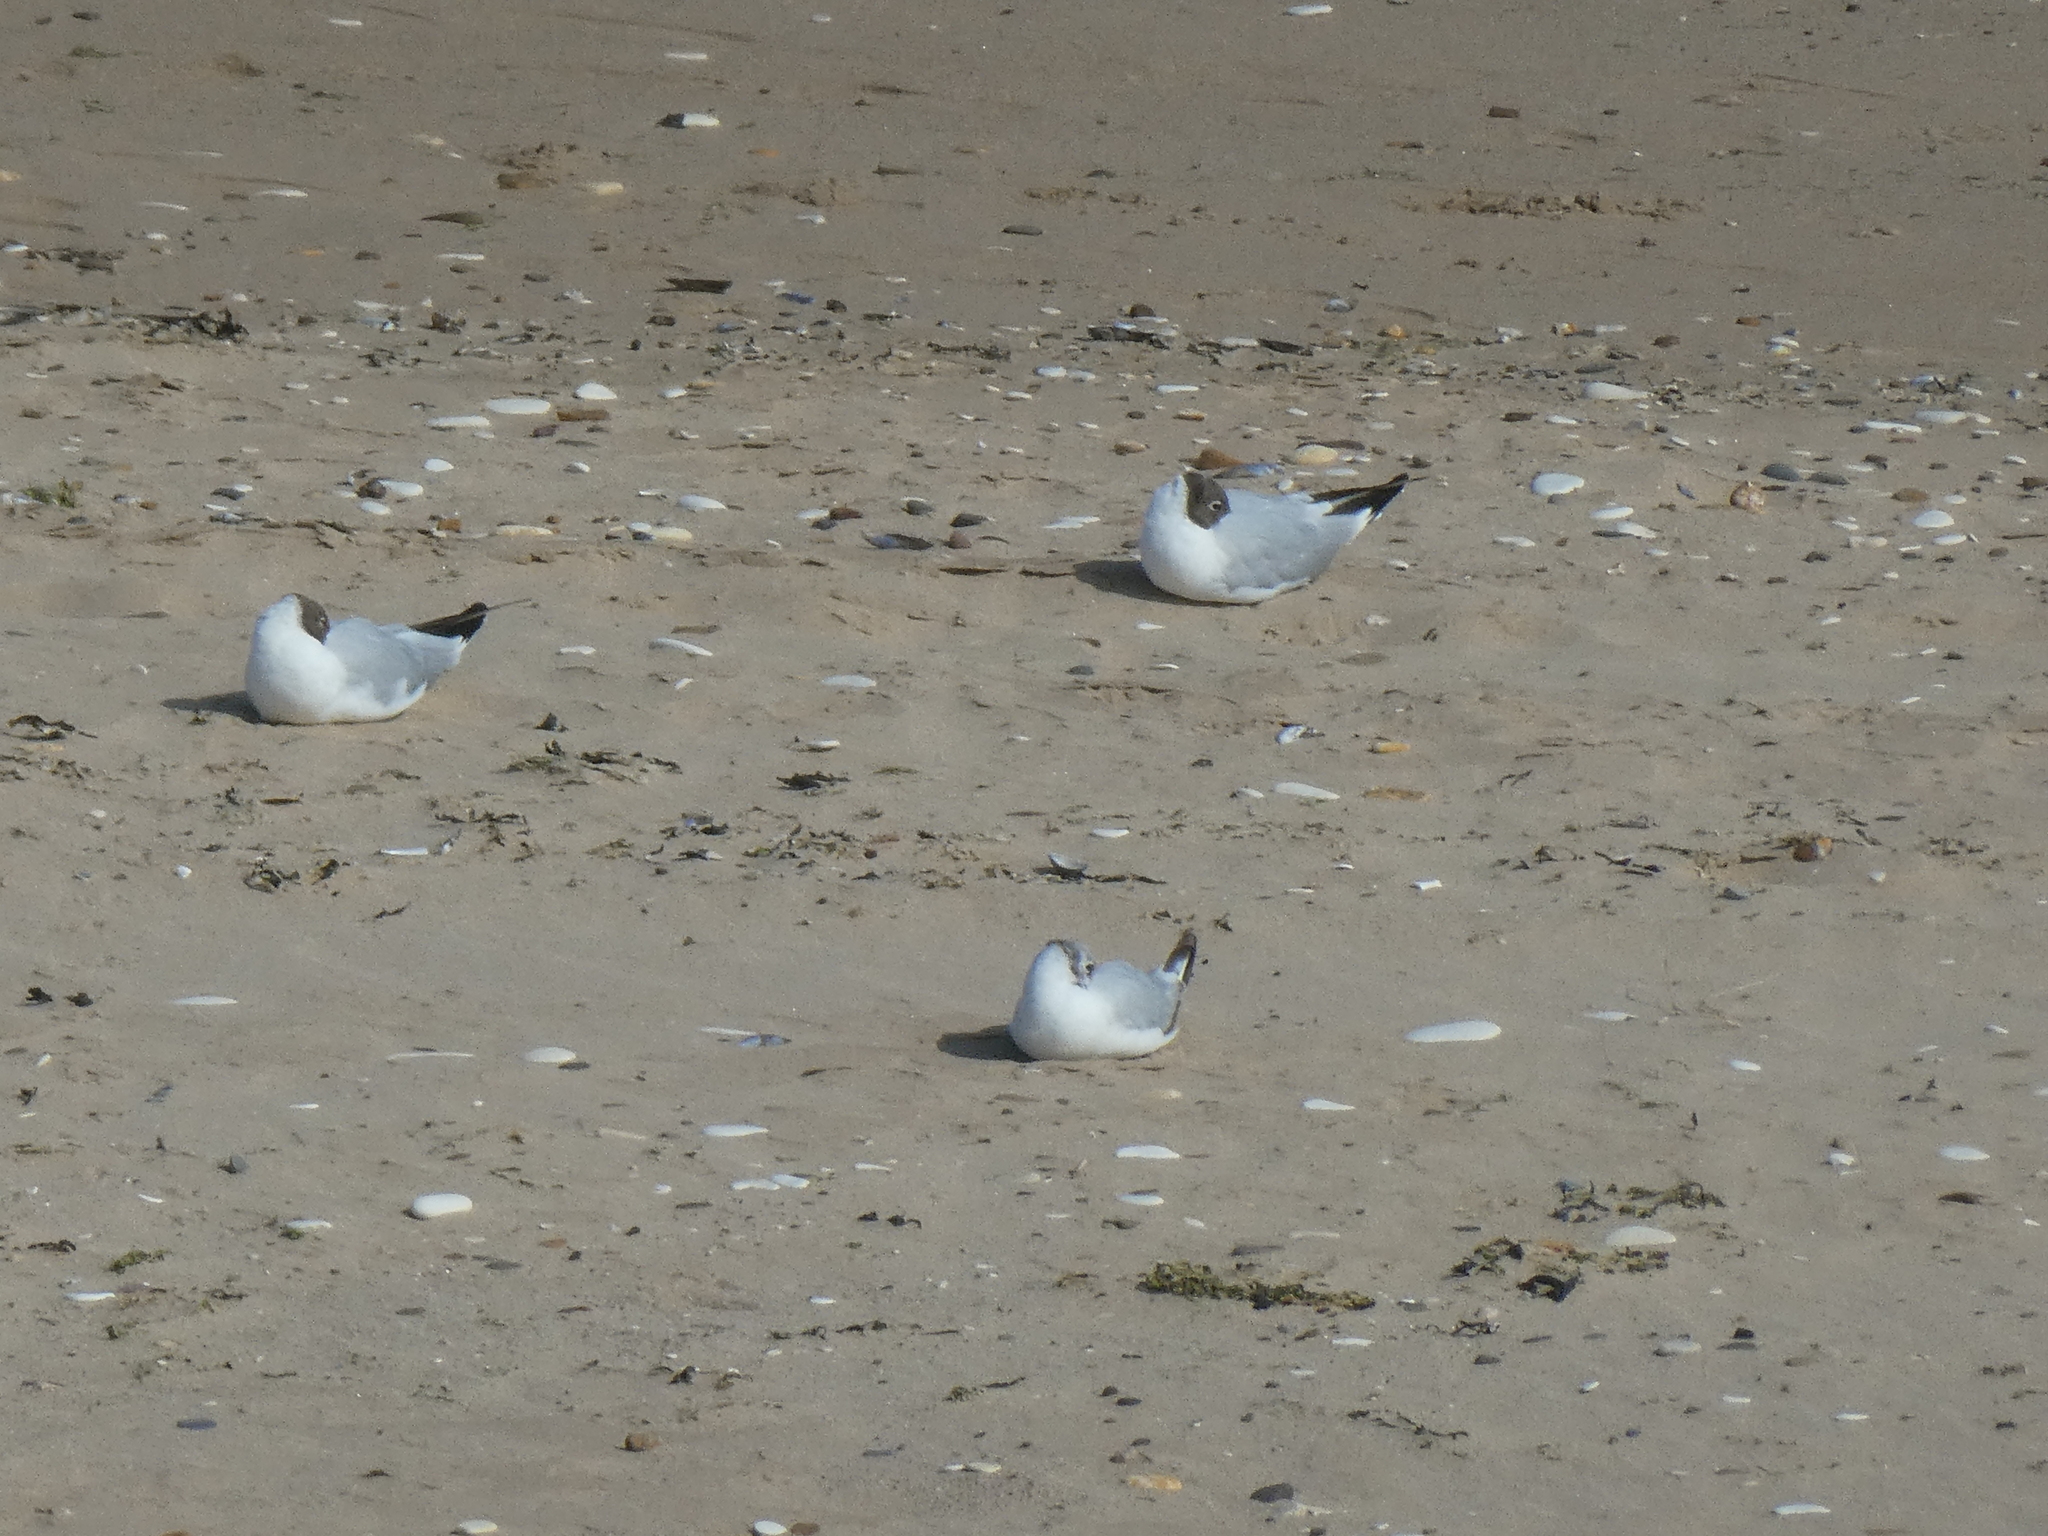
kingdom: Animalia
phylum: Chordata
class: Aves
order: Charadriiformes
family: Laridae
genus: Chroicocephalus
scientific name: Chroicocephalus ridibundus
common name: Black-headed gull
